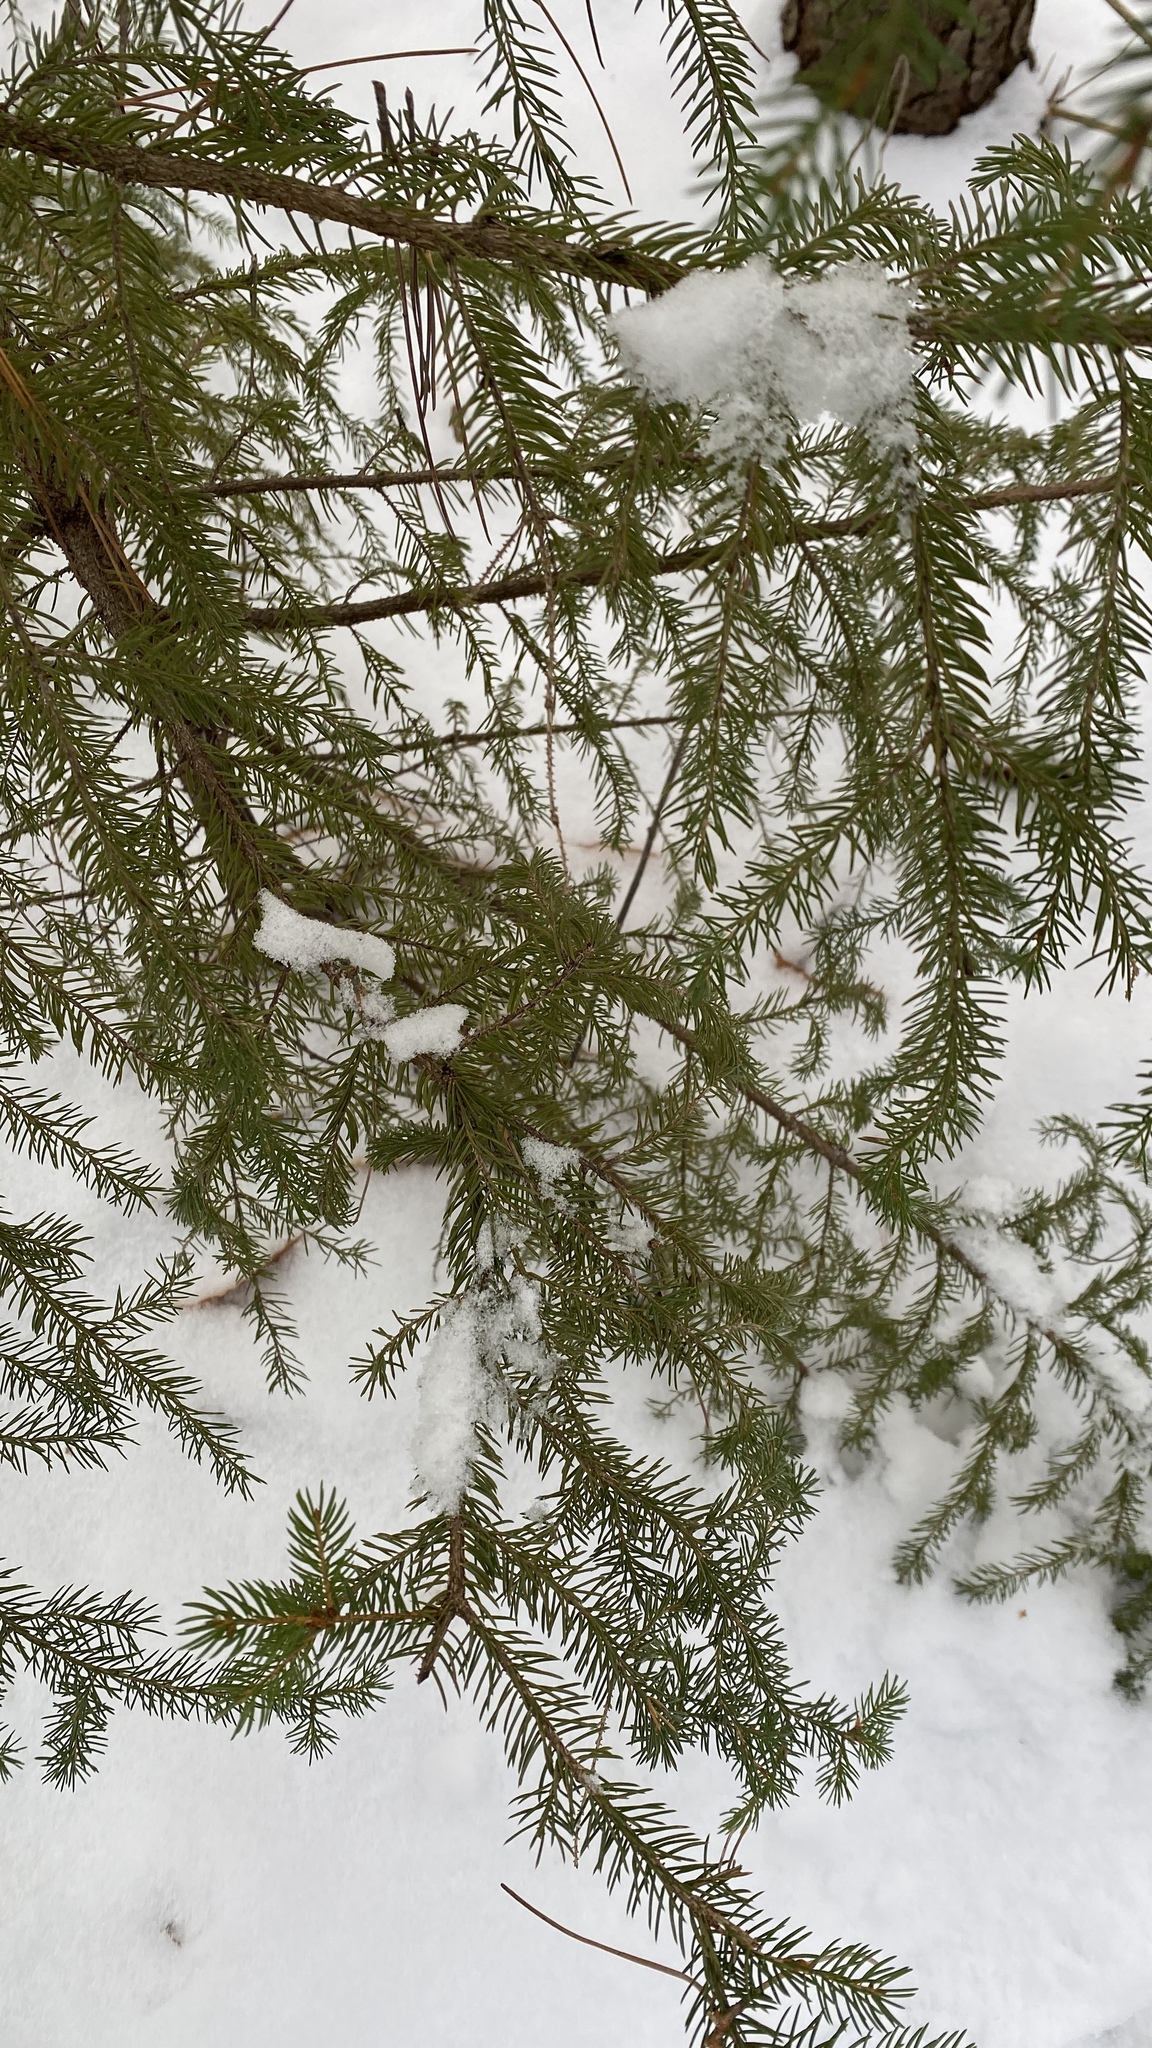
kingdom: Plantae
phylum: Tracheophyta
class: Pinopsida
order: Pinales
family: Pinaceae
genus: Picea
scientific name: Picea rubens
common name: Red spruce
